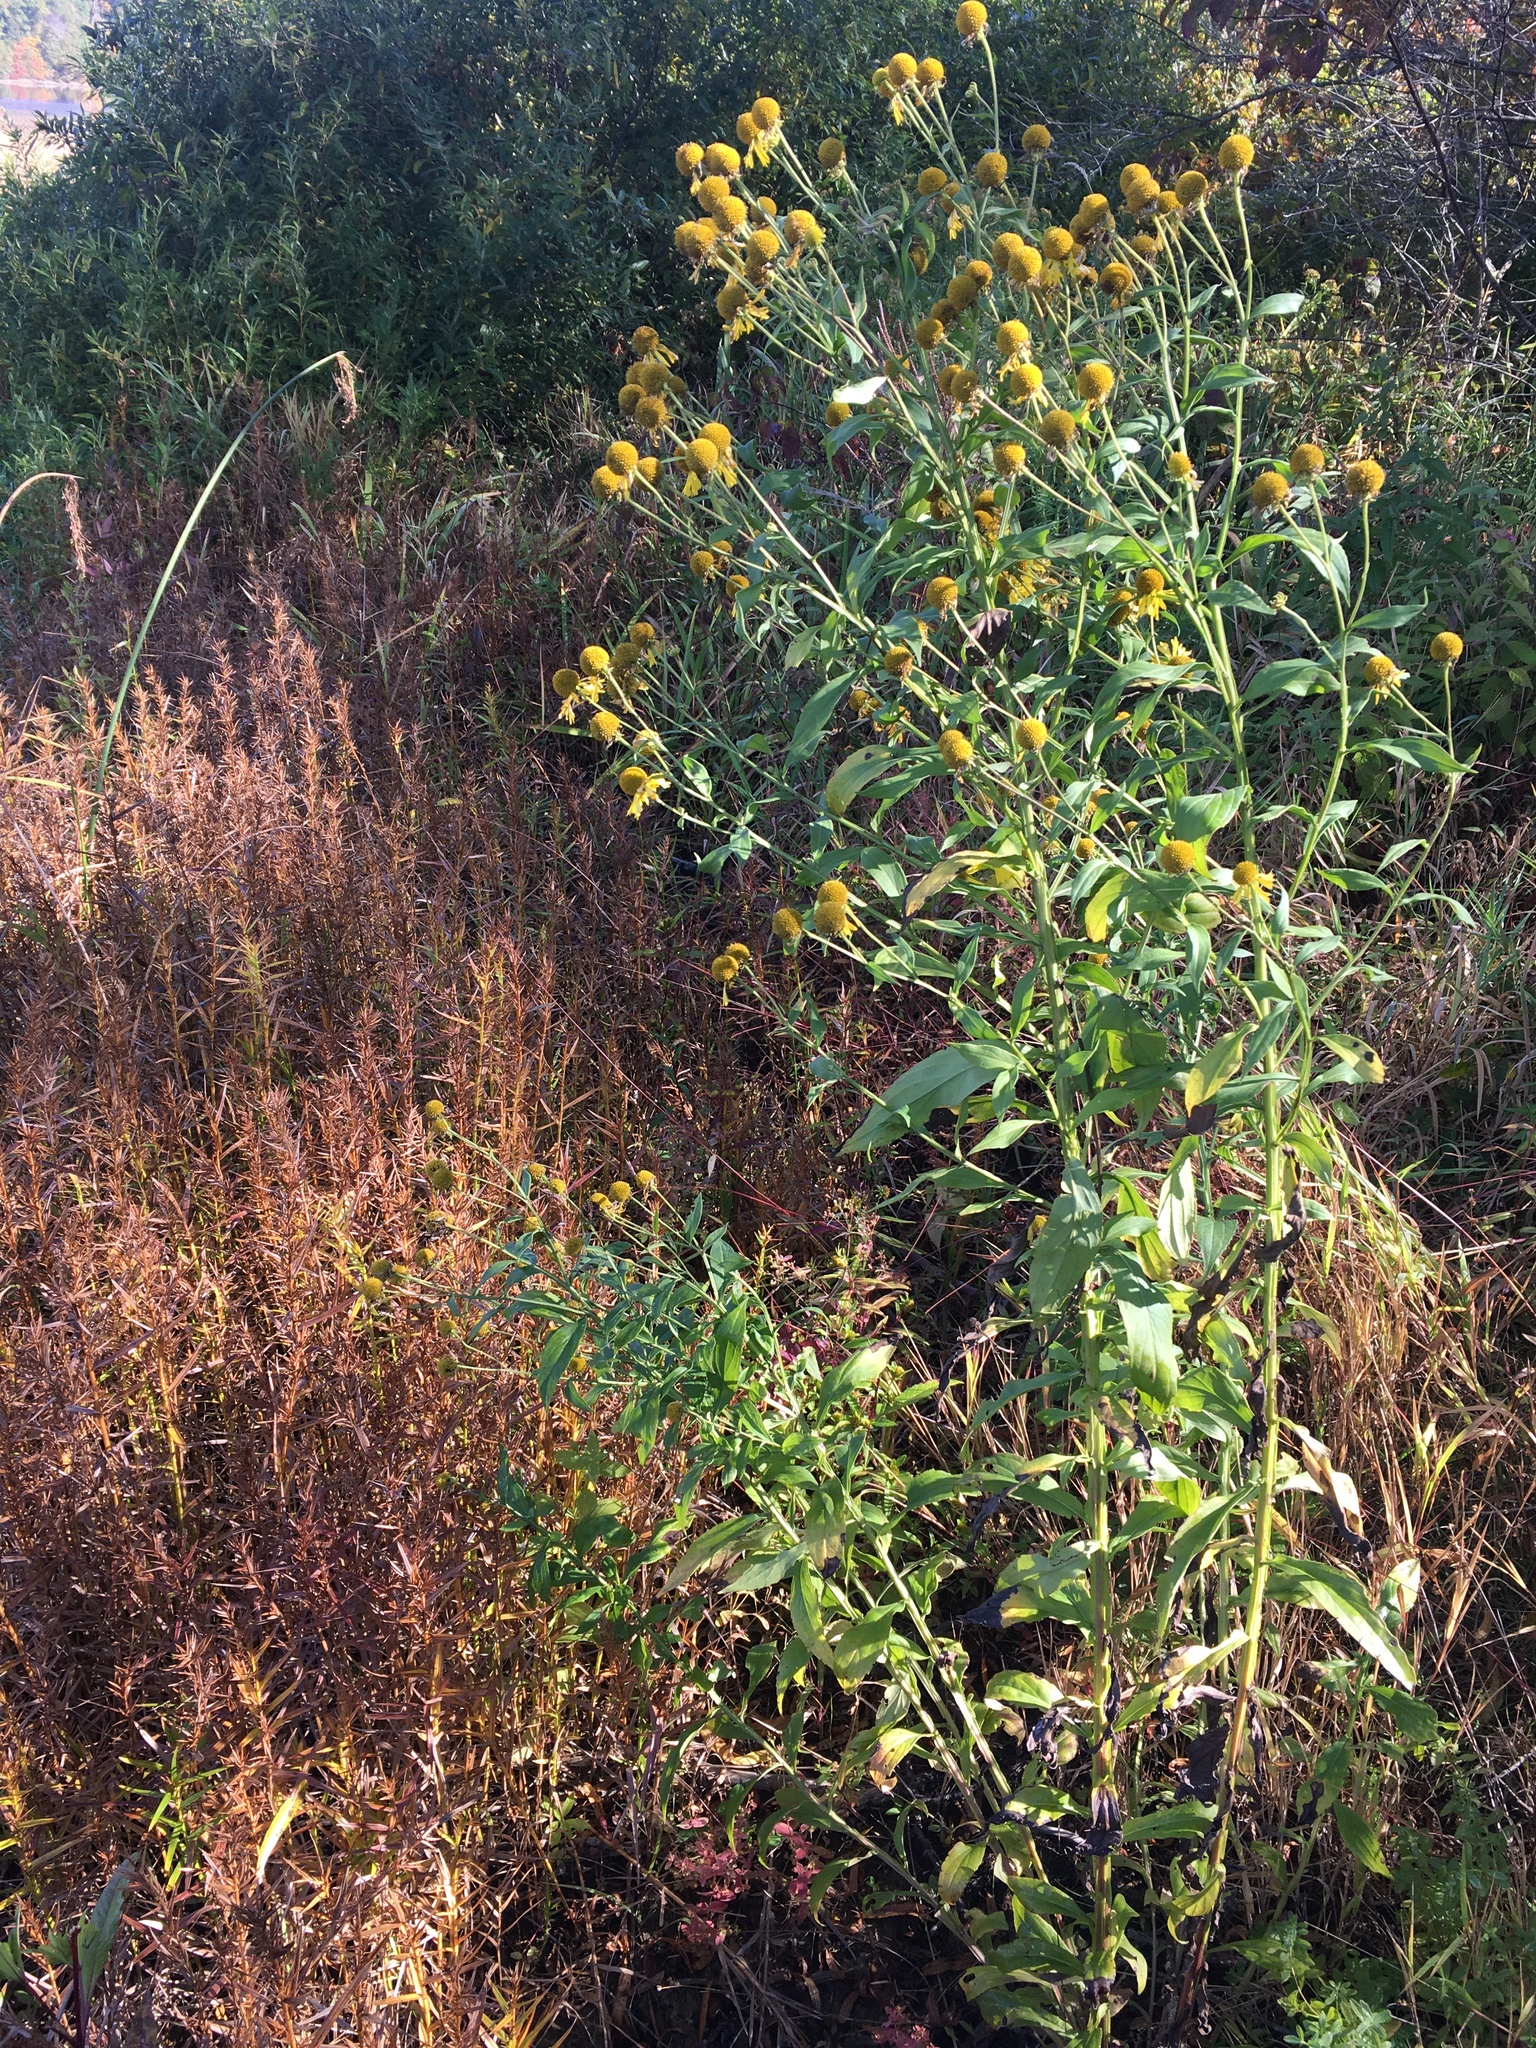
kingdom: Plantae
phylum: Tracheophyta
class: Magnoliopsida
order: Asterales
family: Asteraceae
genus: Helenium
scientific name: Helenium autumnale
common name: Sneezeweed
